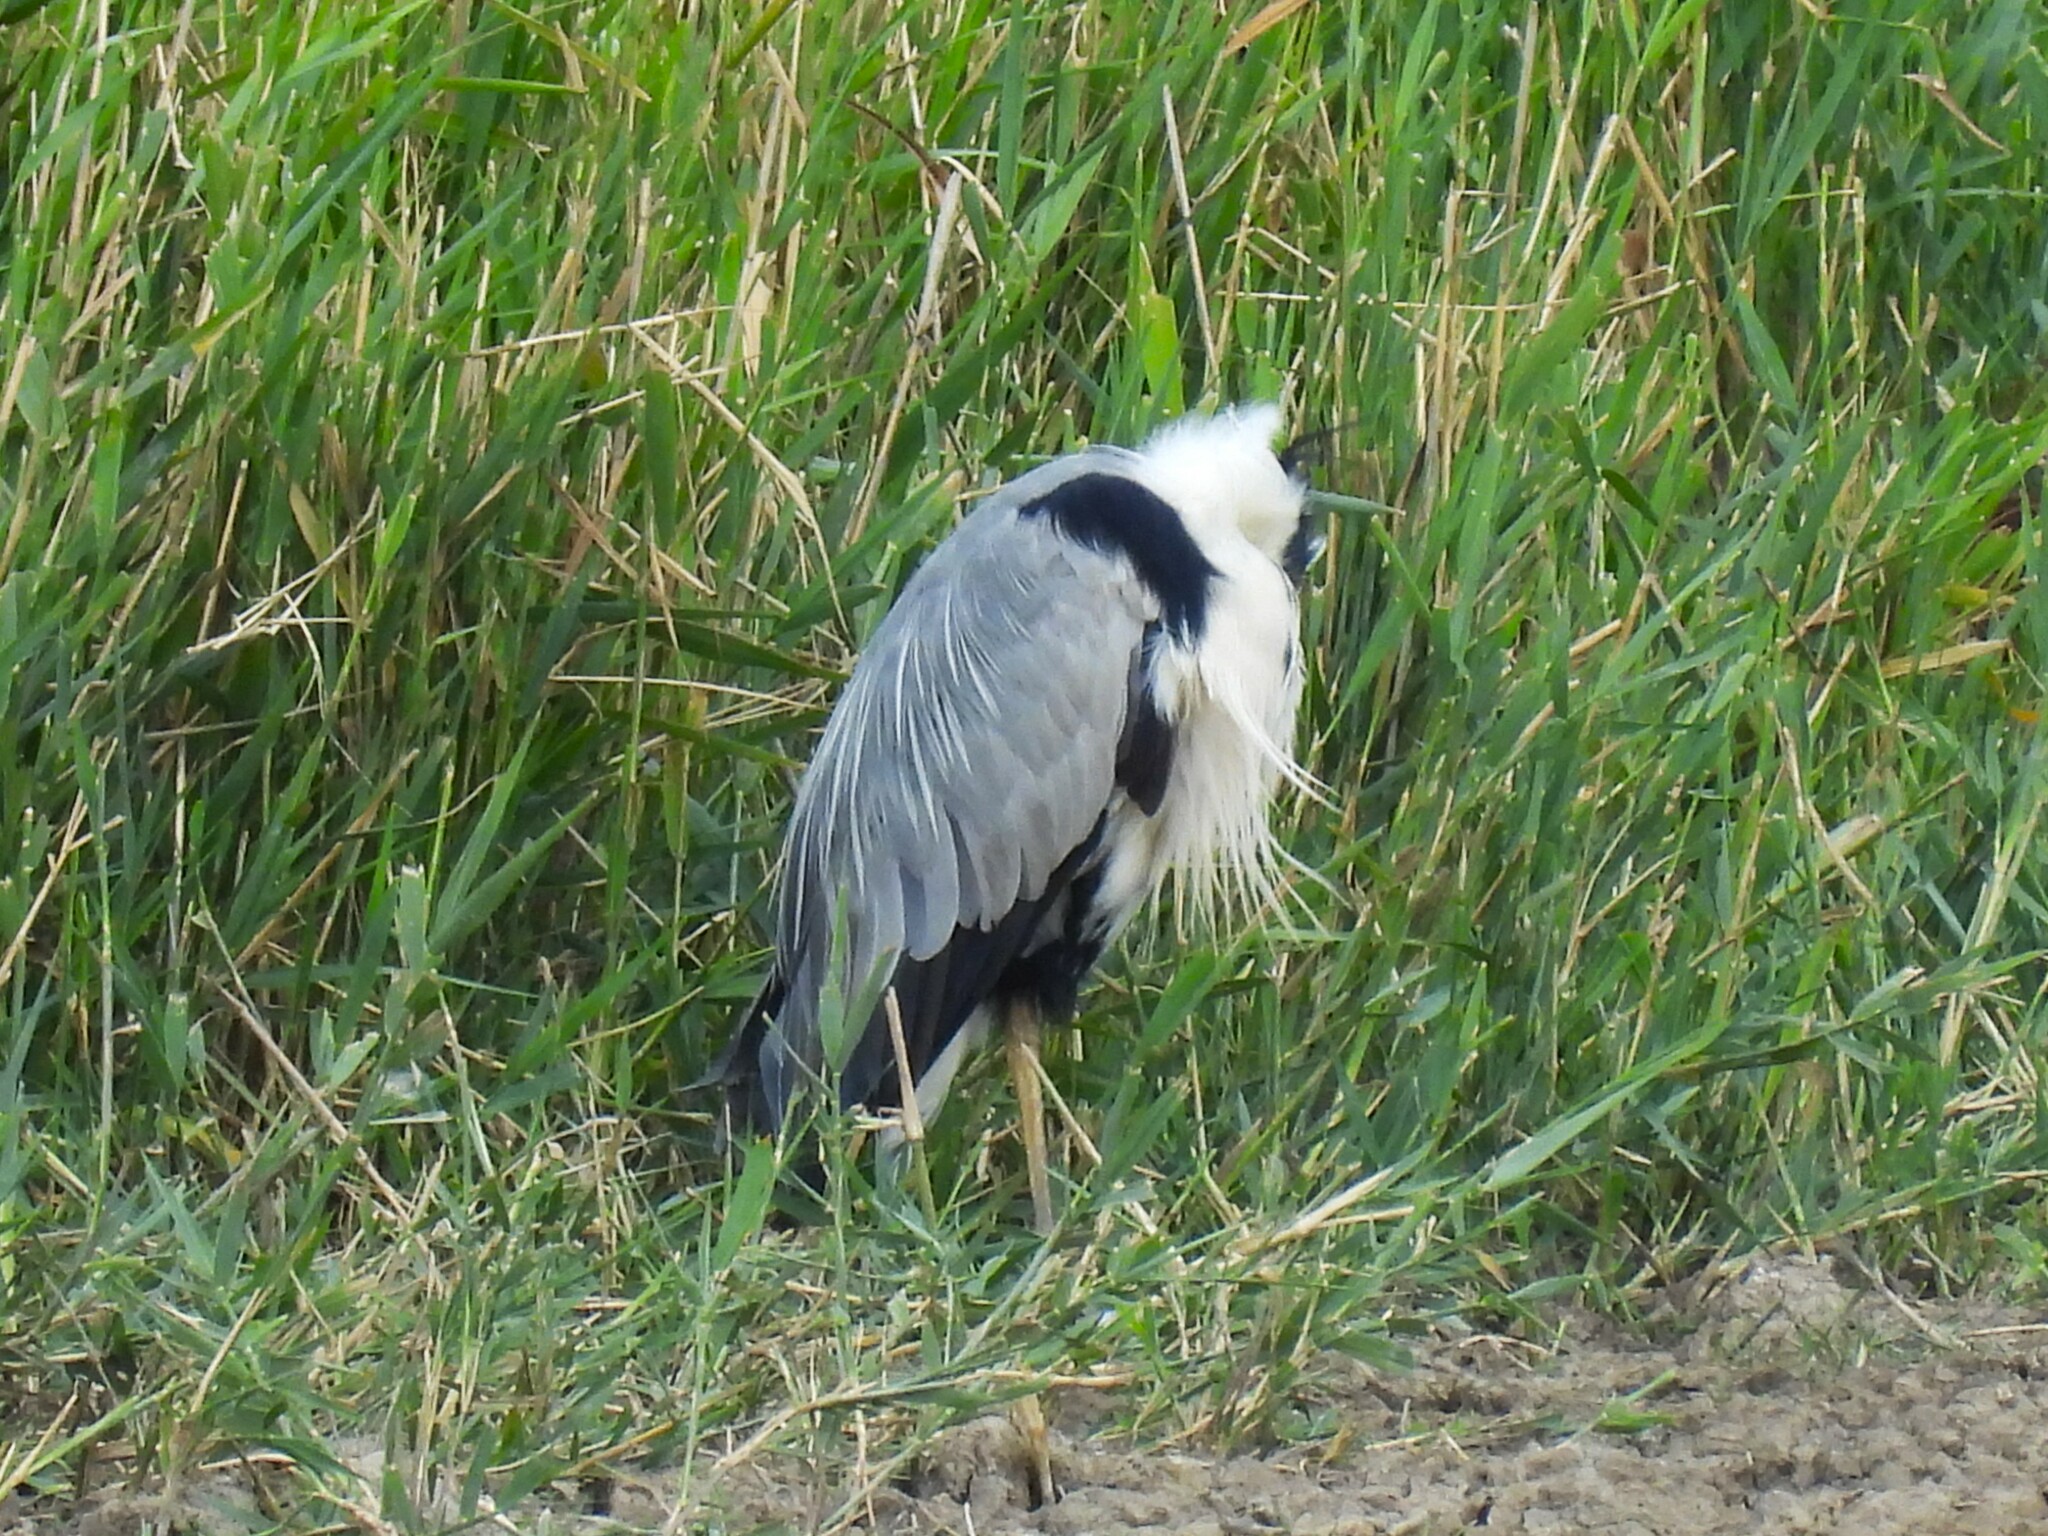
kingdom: Animalia
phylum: Chordata
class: Aves
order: Pelecaniformes
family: Ardeidae
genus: Ardea
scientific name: Ardea cinerea
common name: Grey heron
